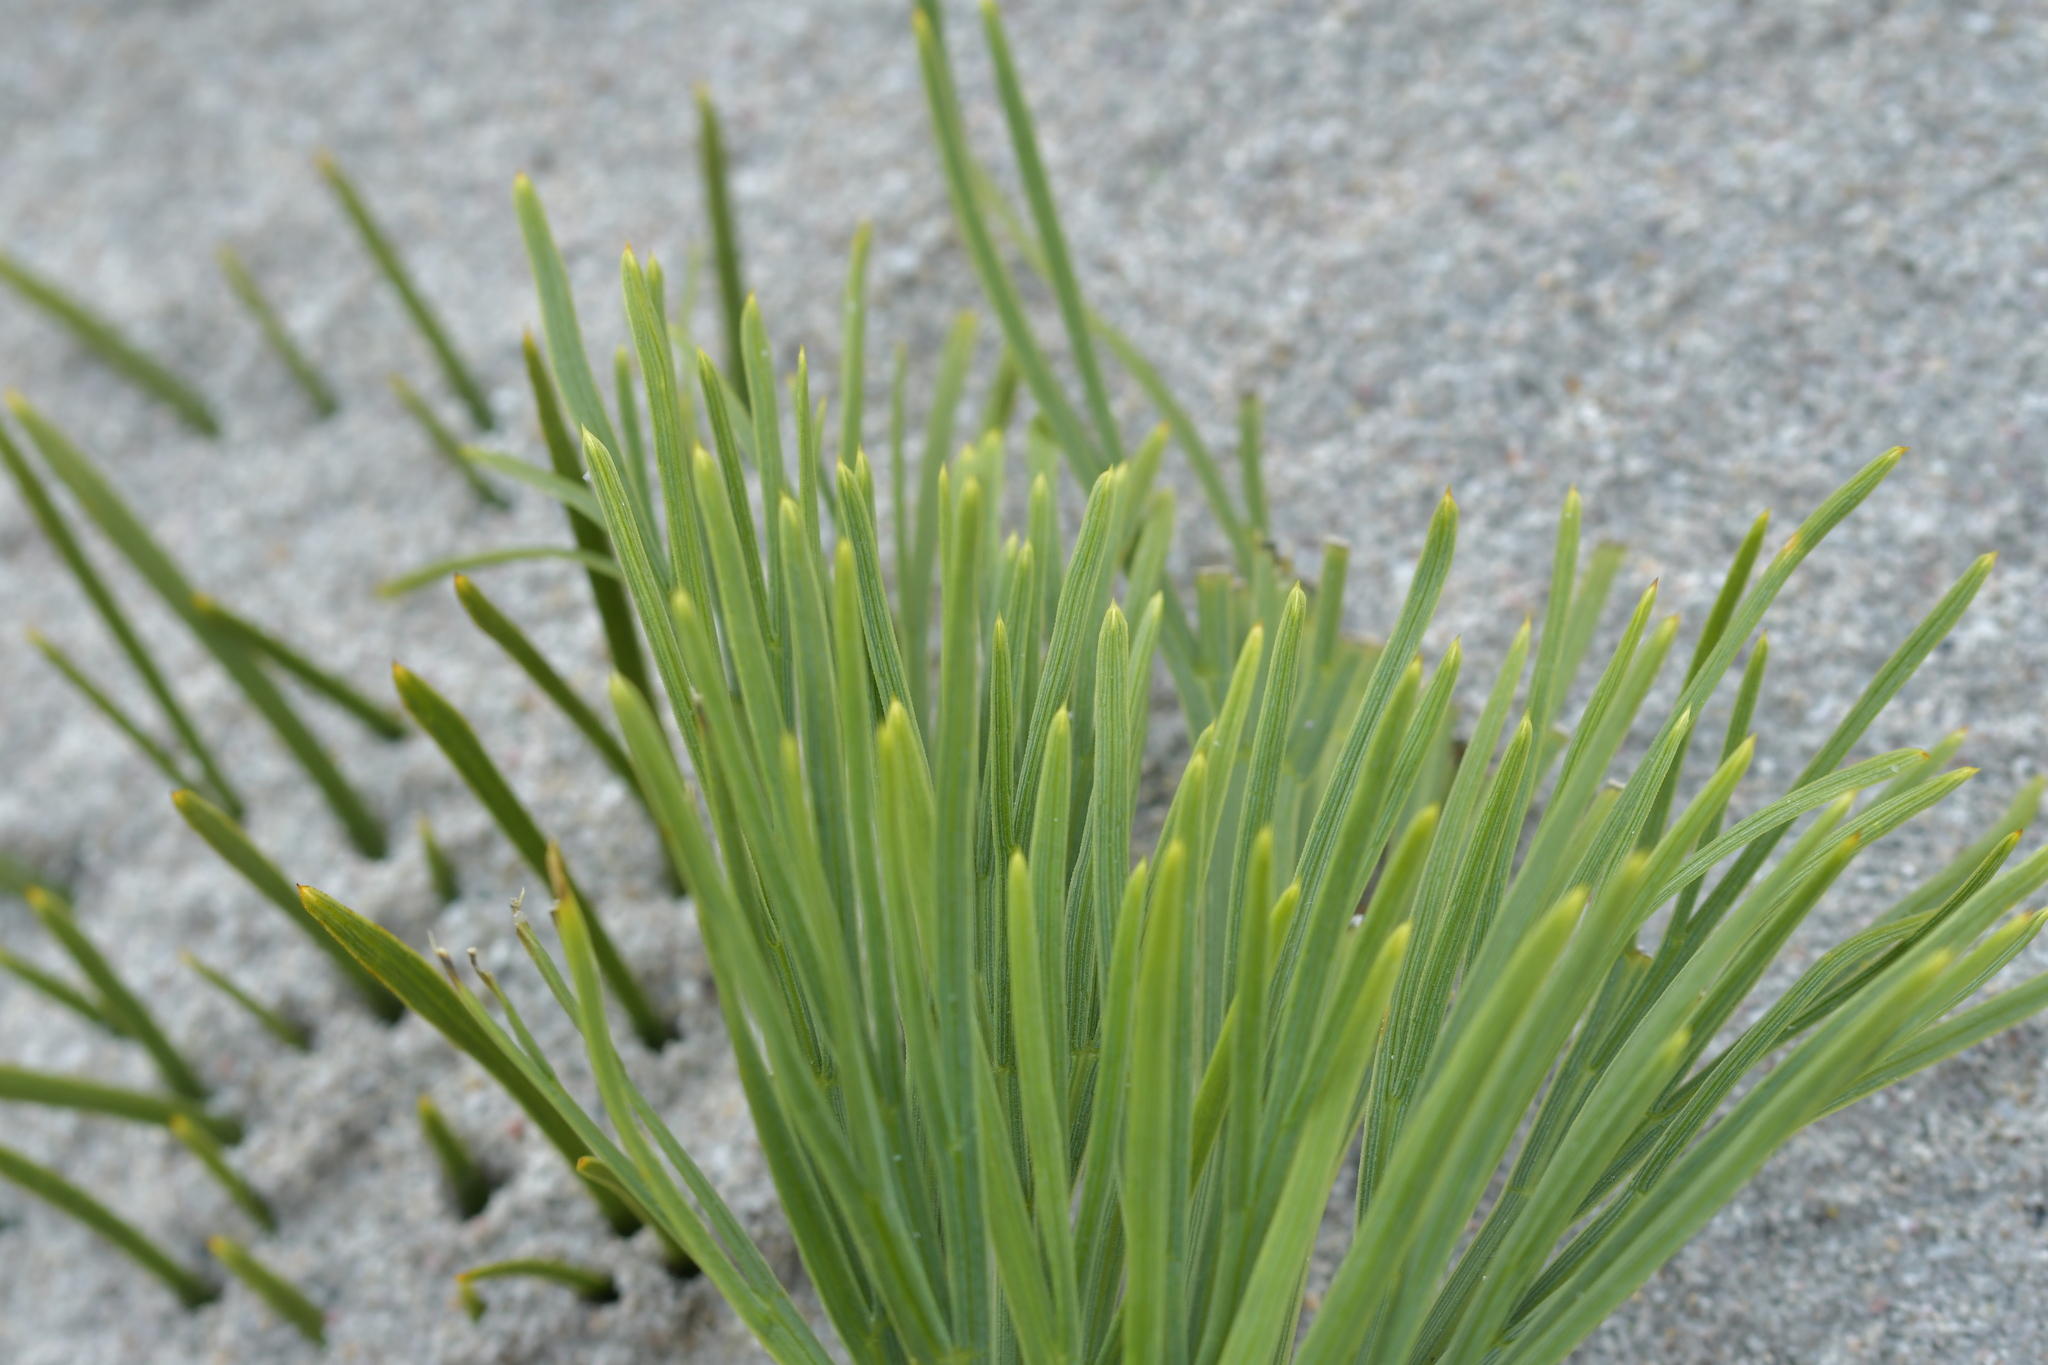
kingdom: Plantae
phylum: Tracheophyta
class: Magnoliopsida
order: Apiales
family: Apiaceae
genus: Aciphylla
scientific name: Aciphylla dieffenbachii
